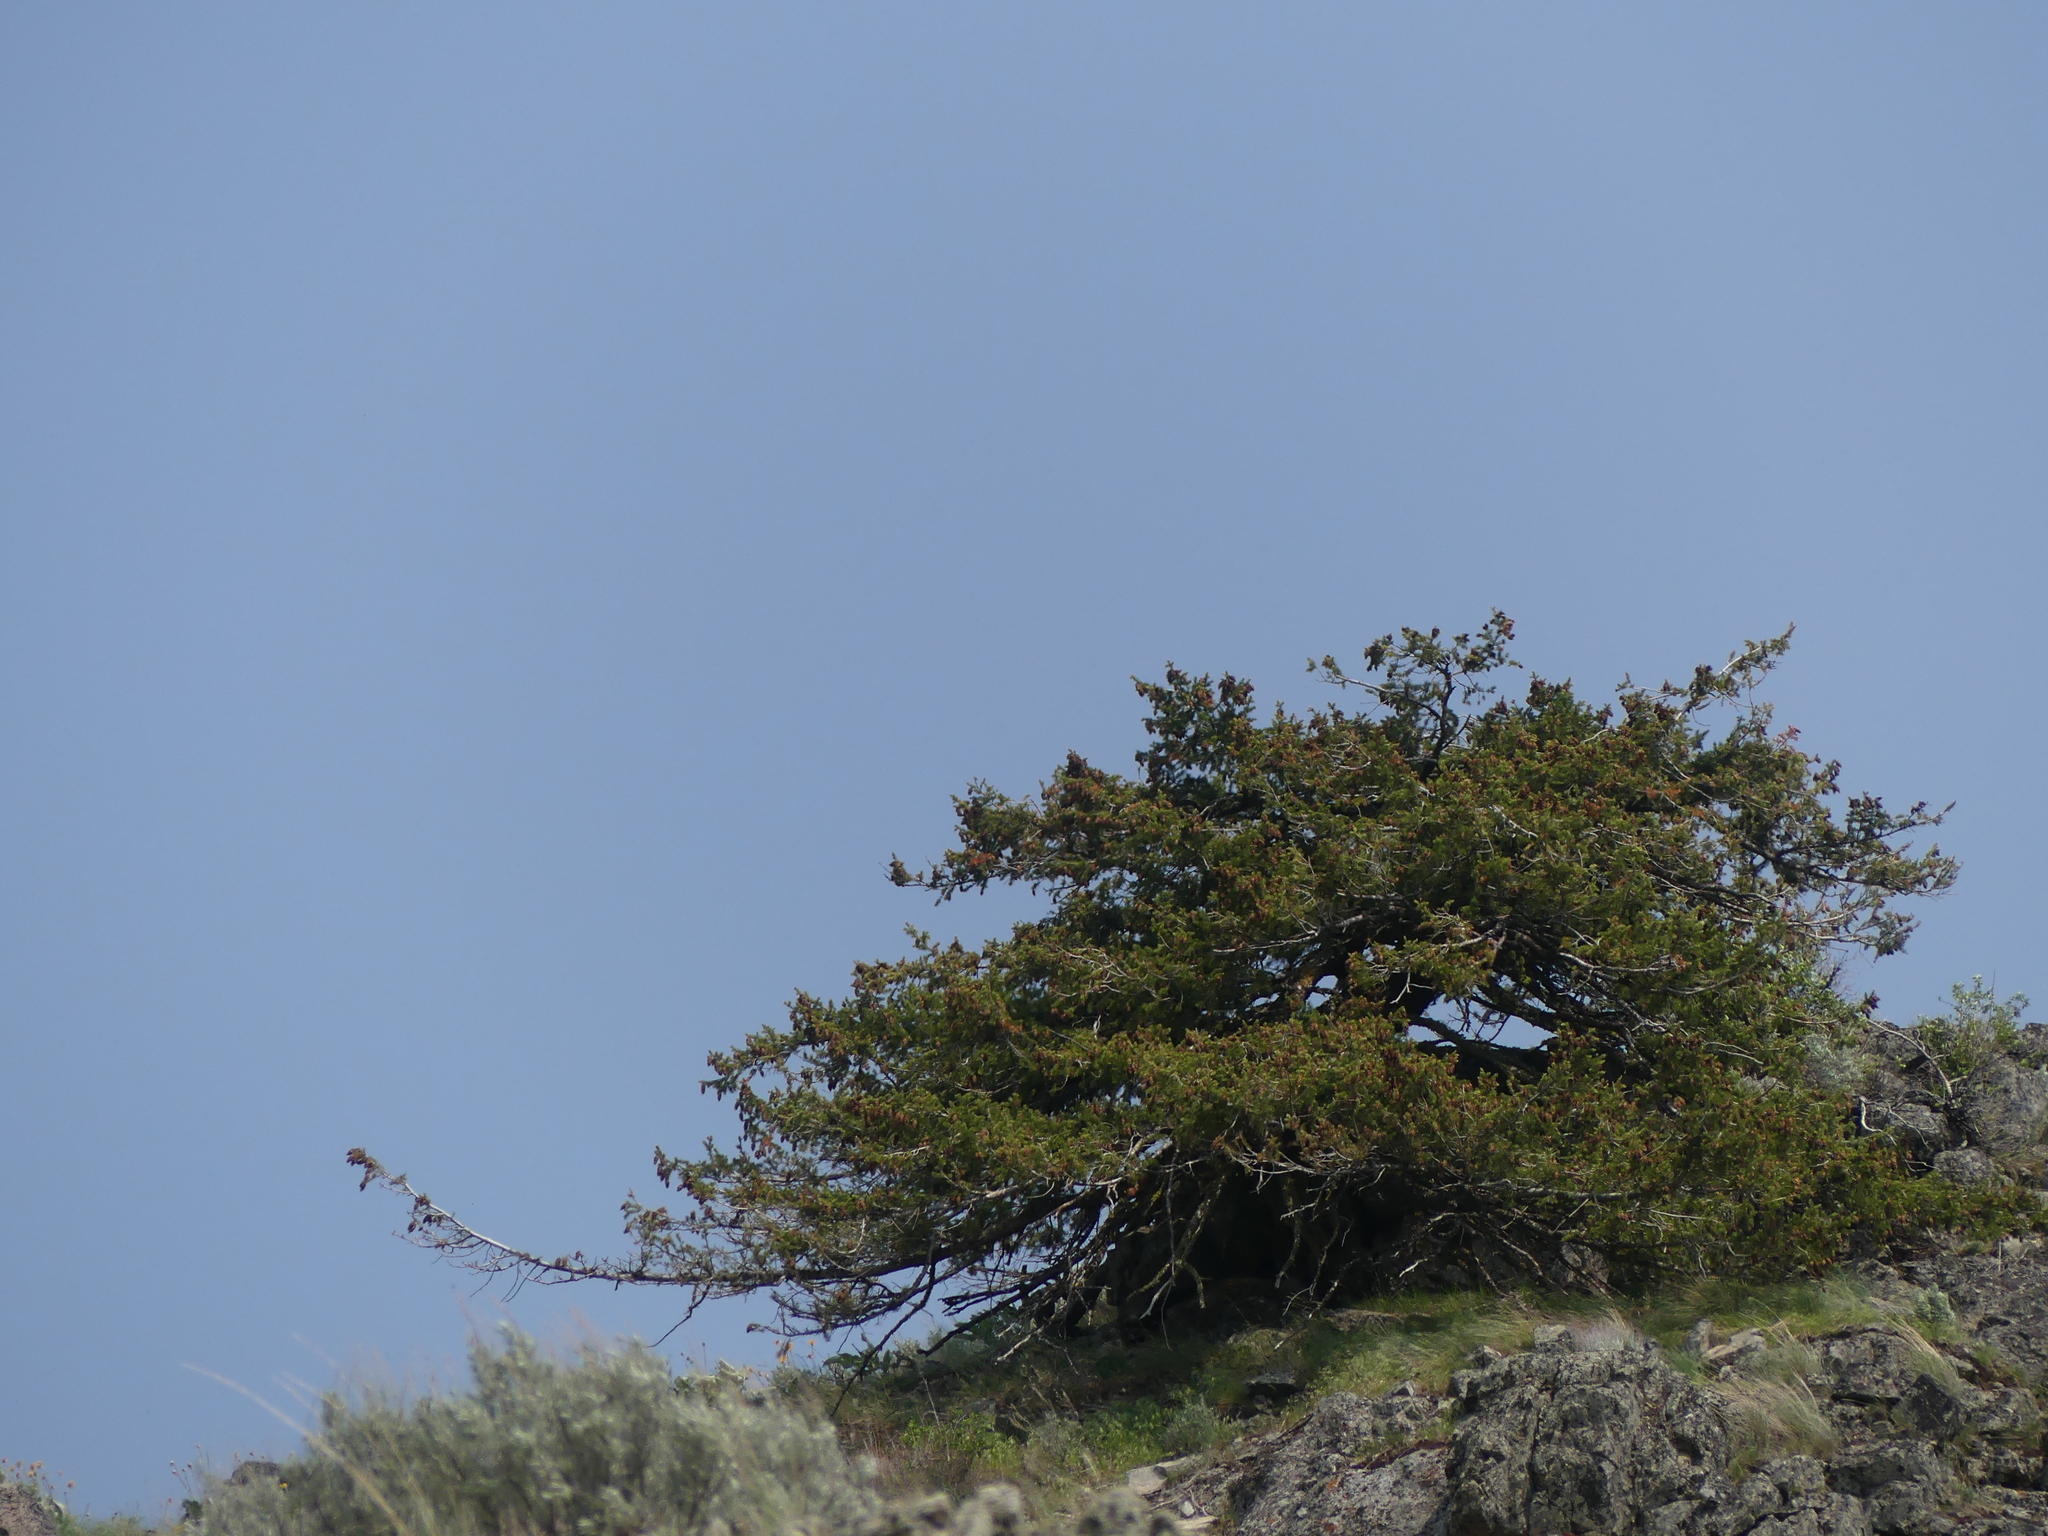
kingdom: Plantae
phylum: Tracheophyta
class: Pinopsida
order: Pinales
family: Pinaceae
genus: Pseudotsuga
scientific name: Pseudotsuga menziesii
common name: Douglas fir
